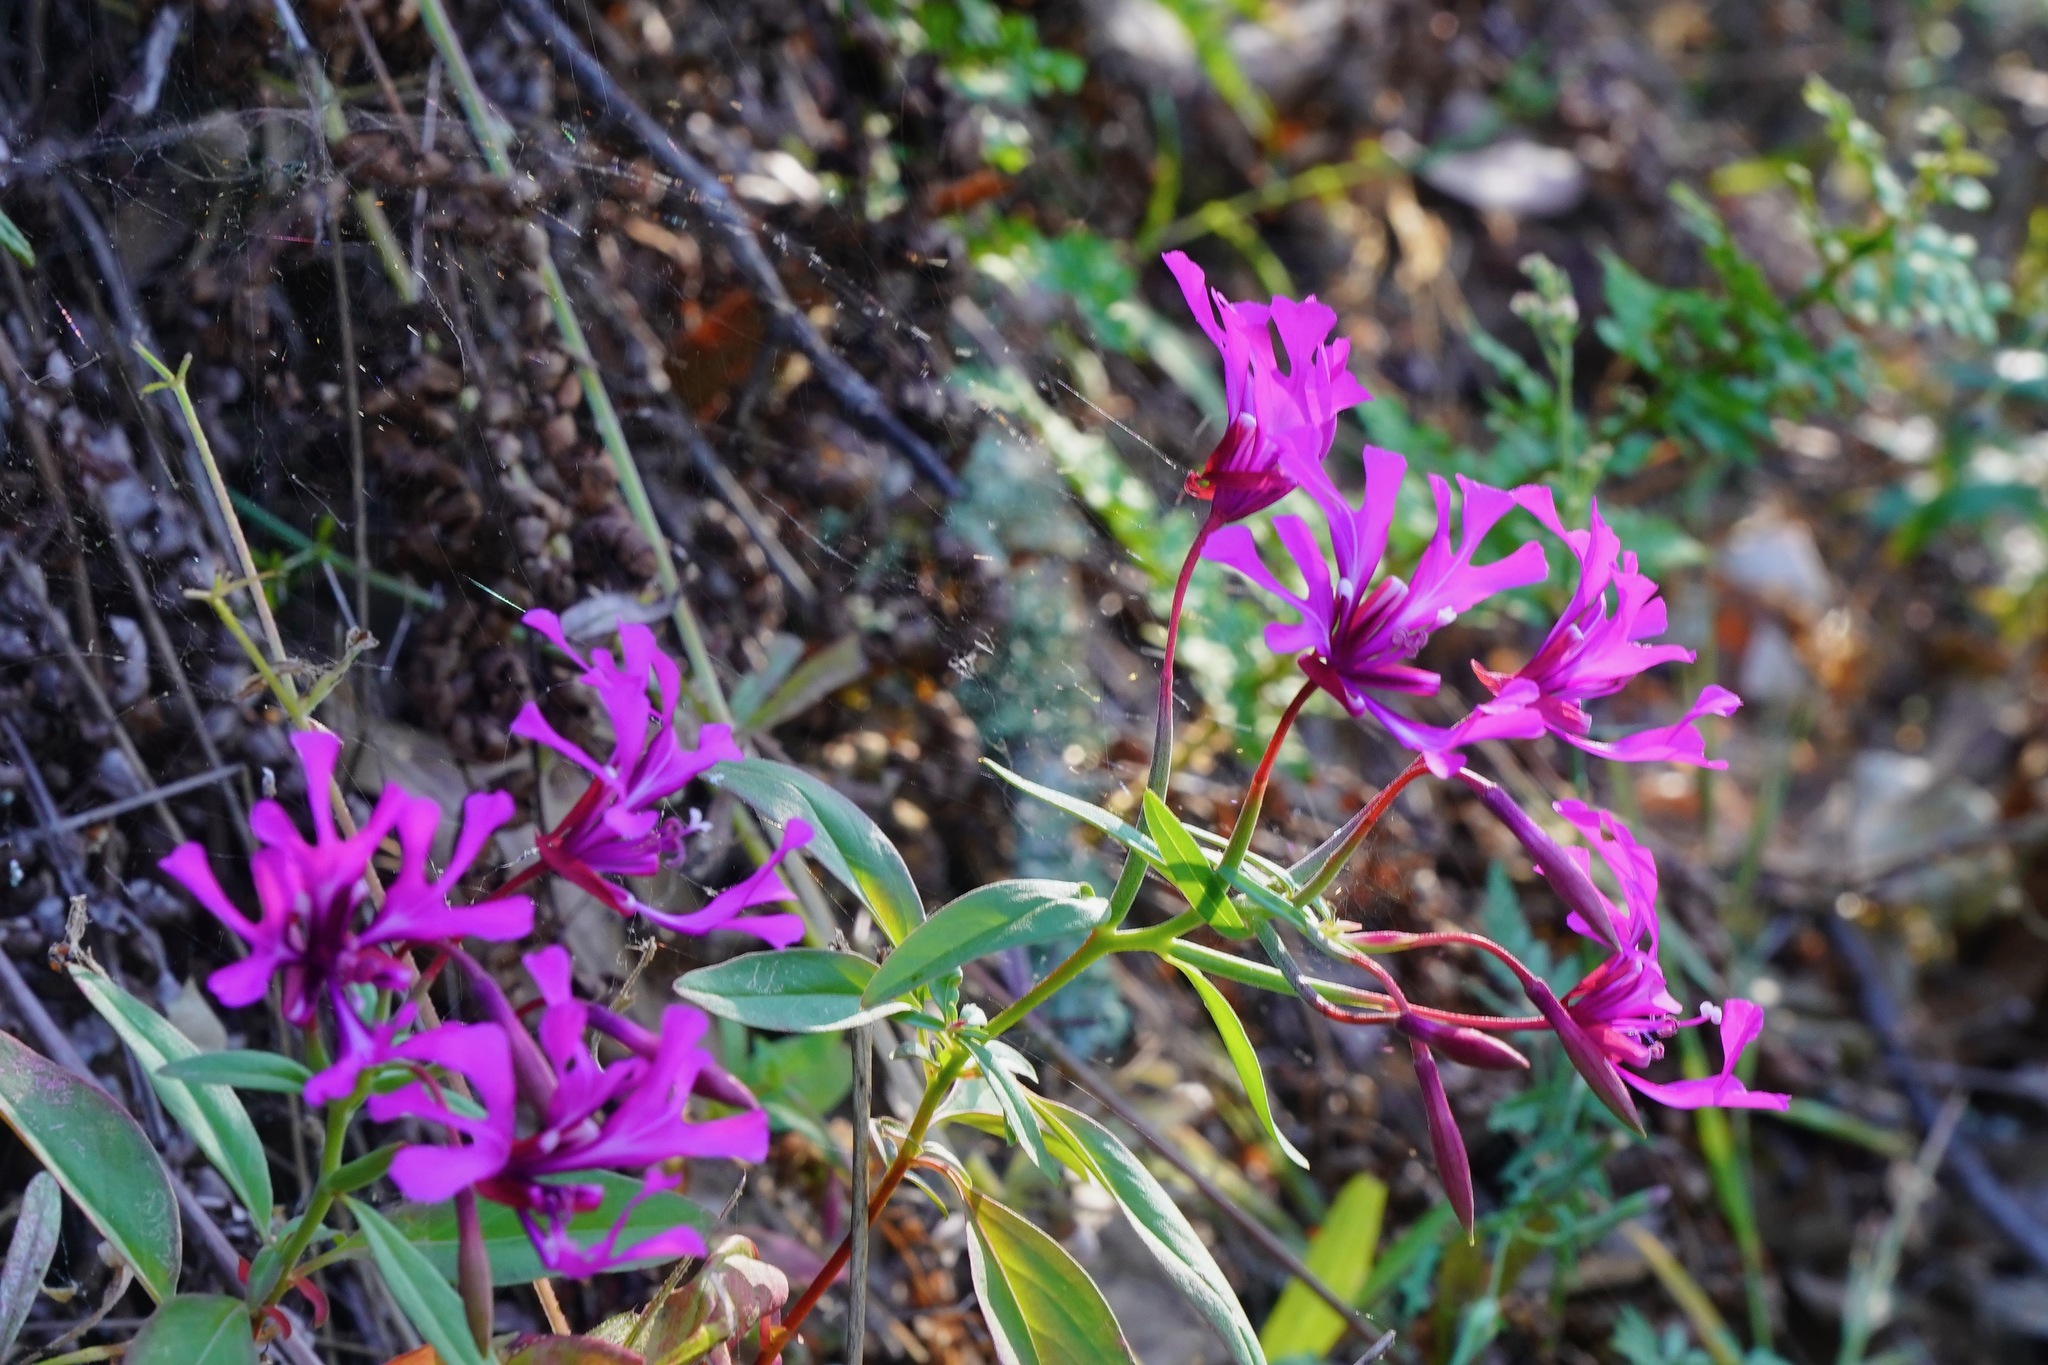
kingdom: Plantae
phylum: Tracheophyta
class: Magnoliopsida
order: Myrtales
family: Onagraceae
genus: Clarkia
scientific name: Clarkia concinna
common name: Red-ribbons
